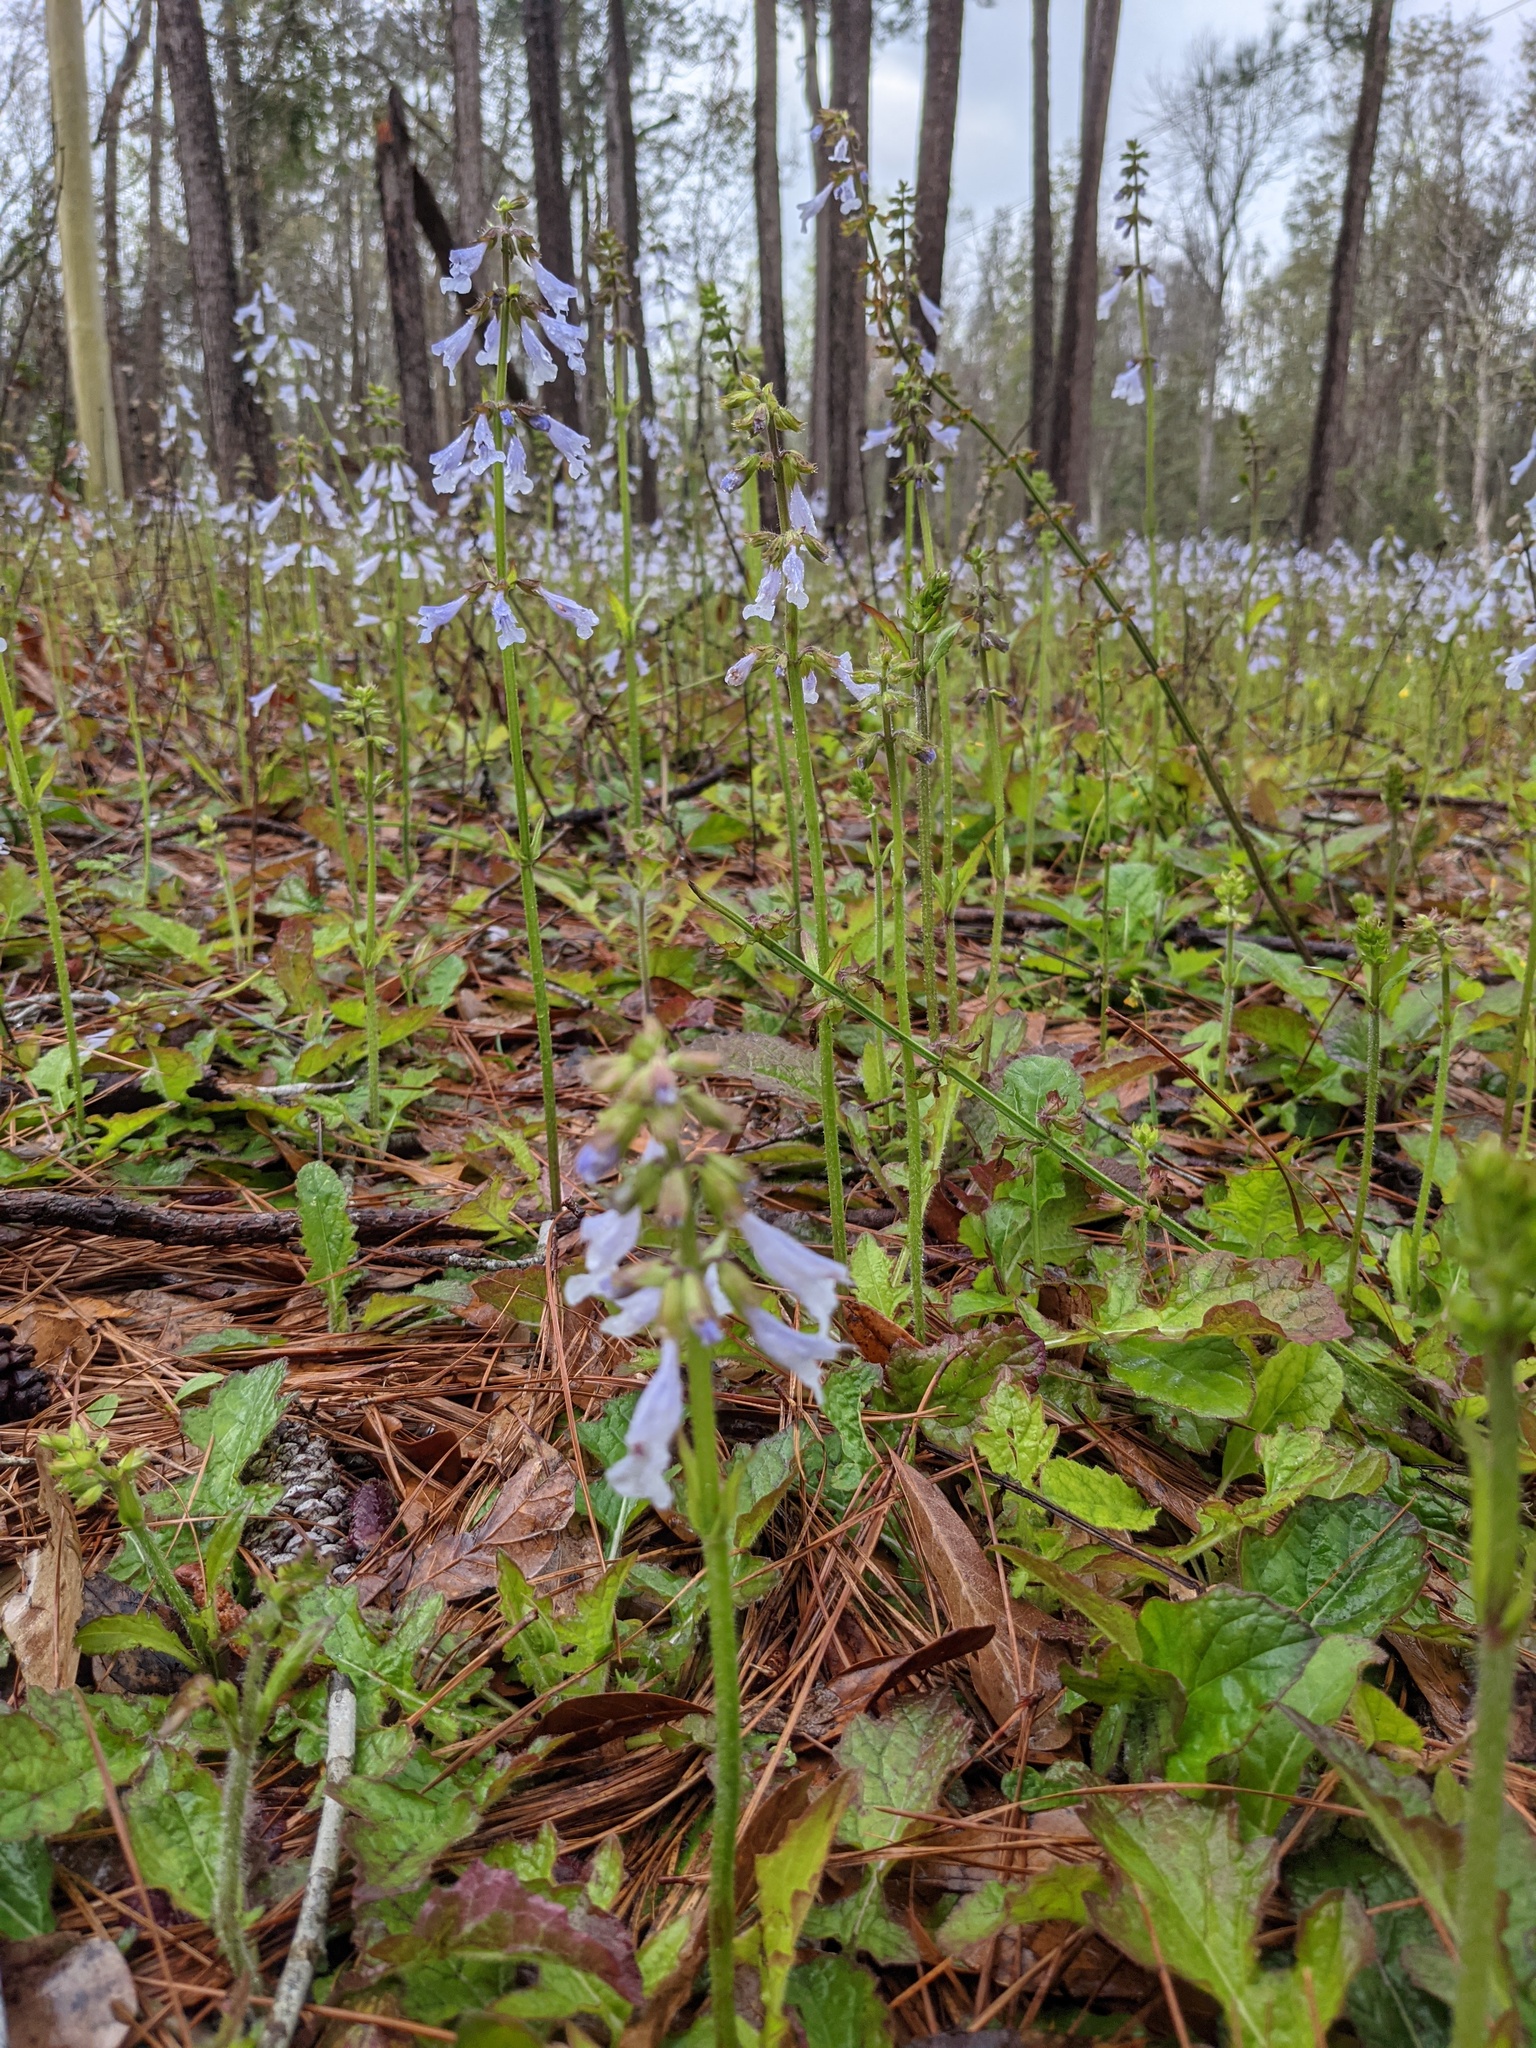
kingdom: Plantae
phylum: Tracheophyta
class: Magnoliopsida
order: Lamiales
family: Lamiaceae
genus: Salvia
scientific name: Salvia lyrata
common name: Cancerweed
